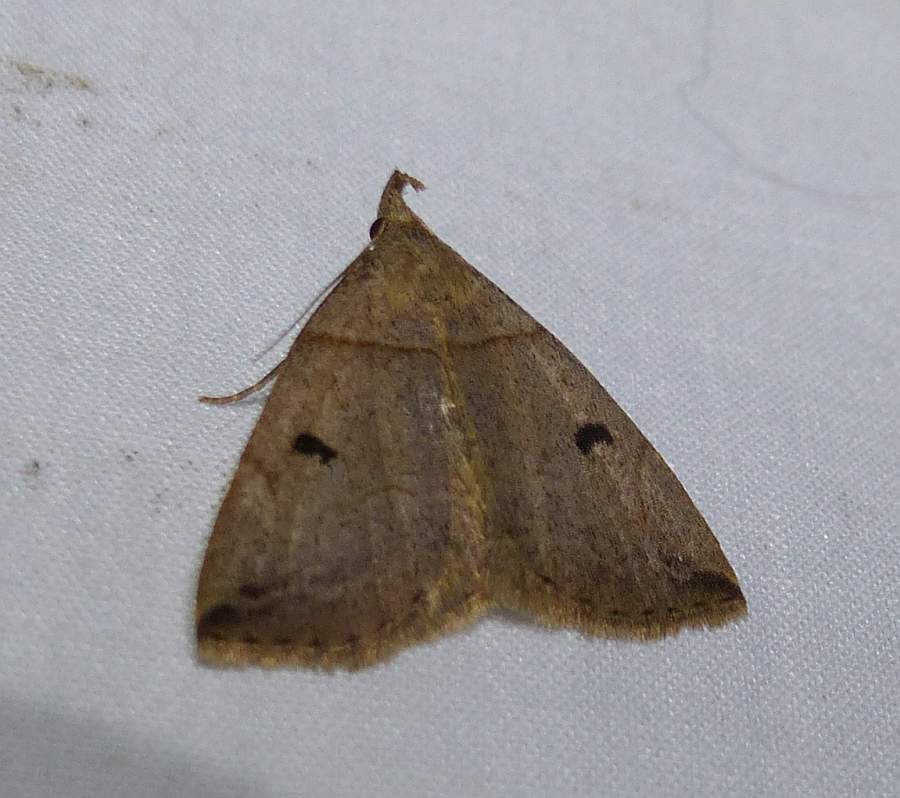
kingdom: Animalia
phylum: Arthropoda
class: Insecta
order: Lepidoptera
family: Erebidae
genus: Zanclognatha
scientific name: Zanclognatha laevigata
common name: Variable fan-foot
